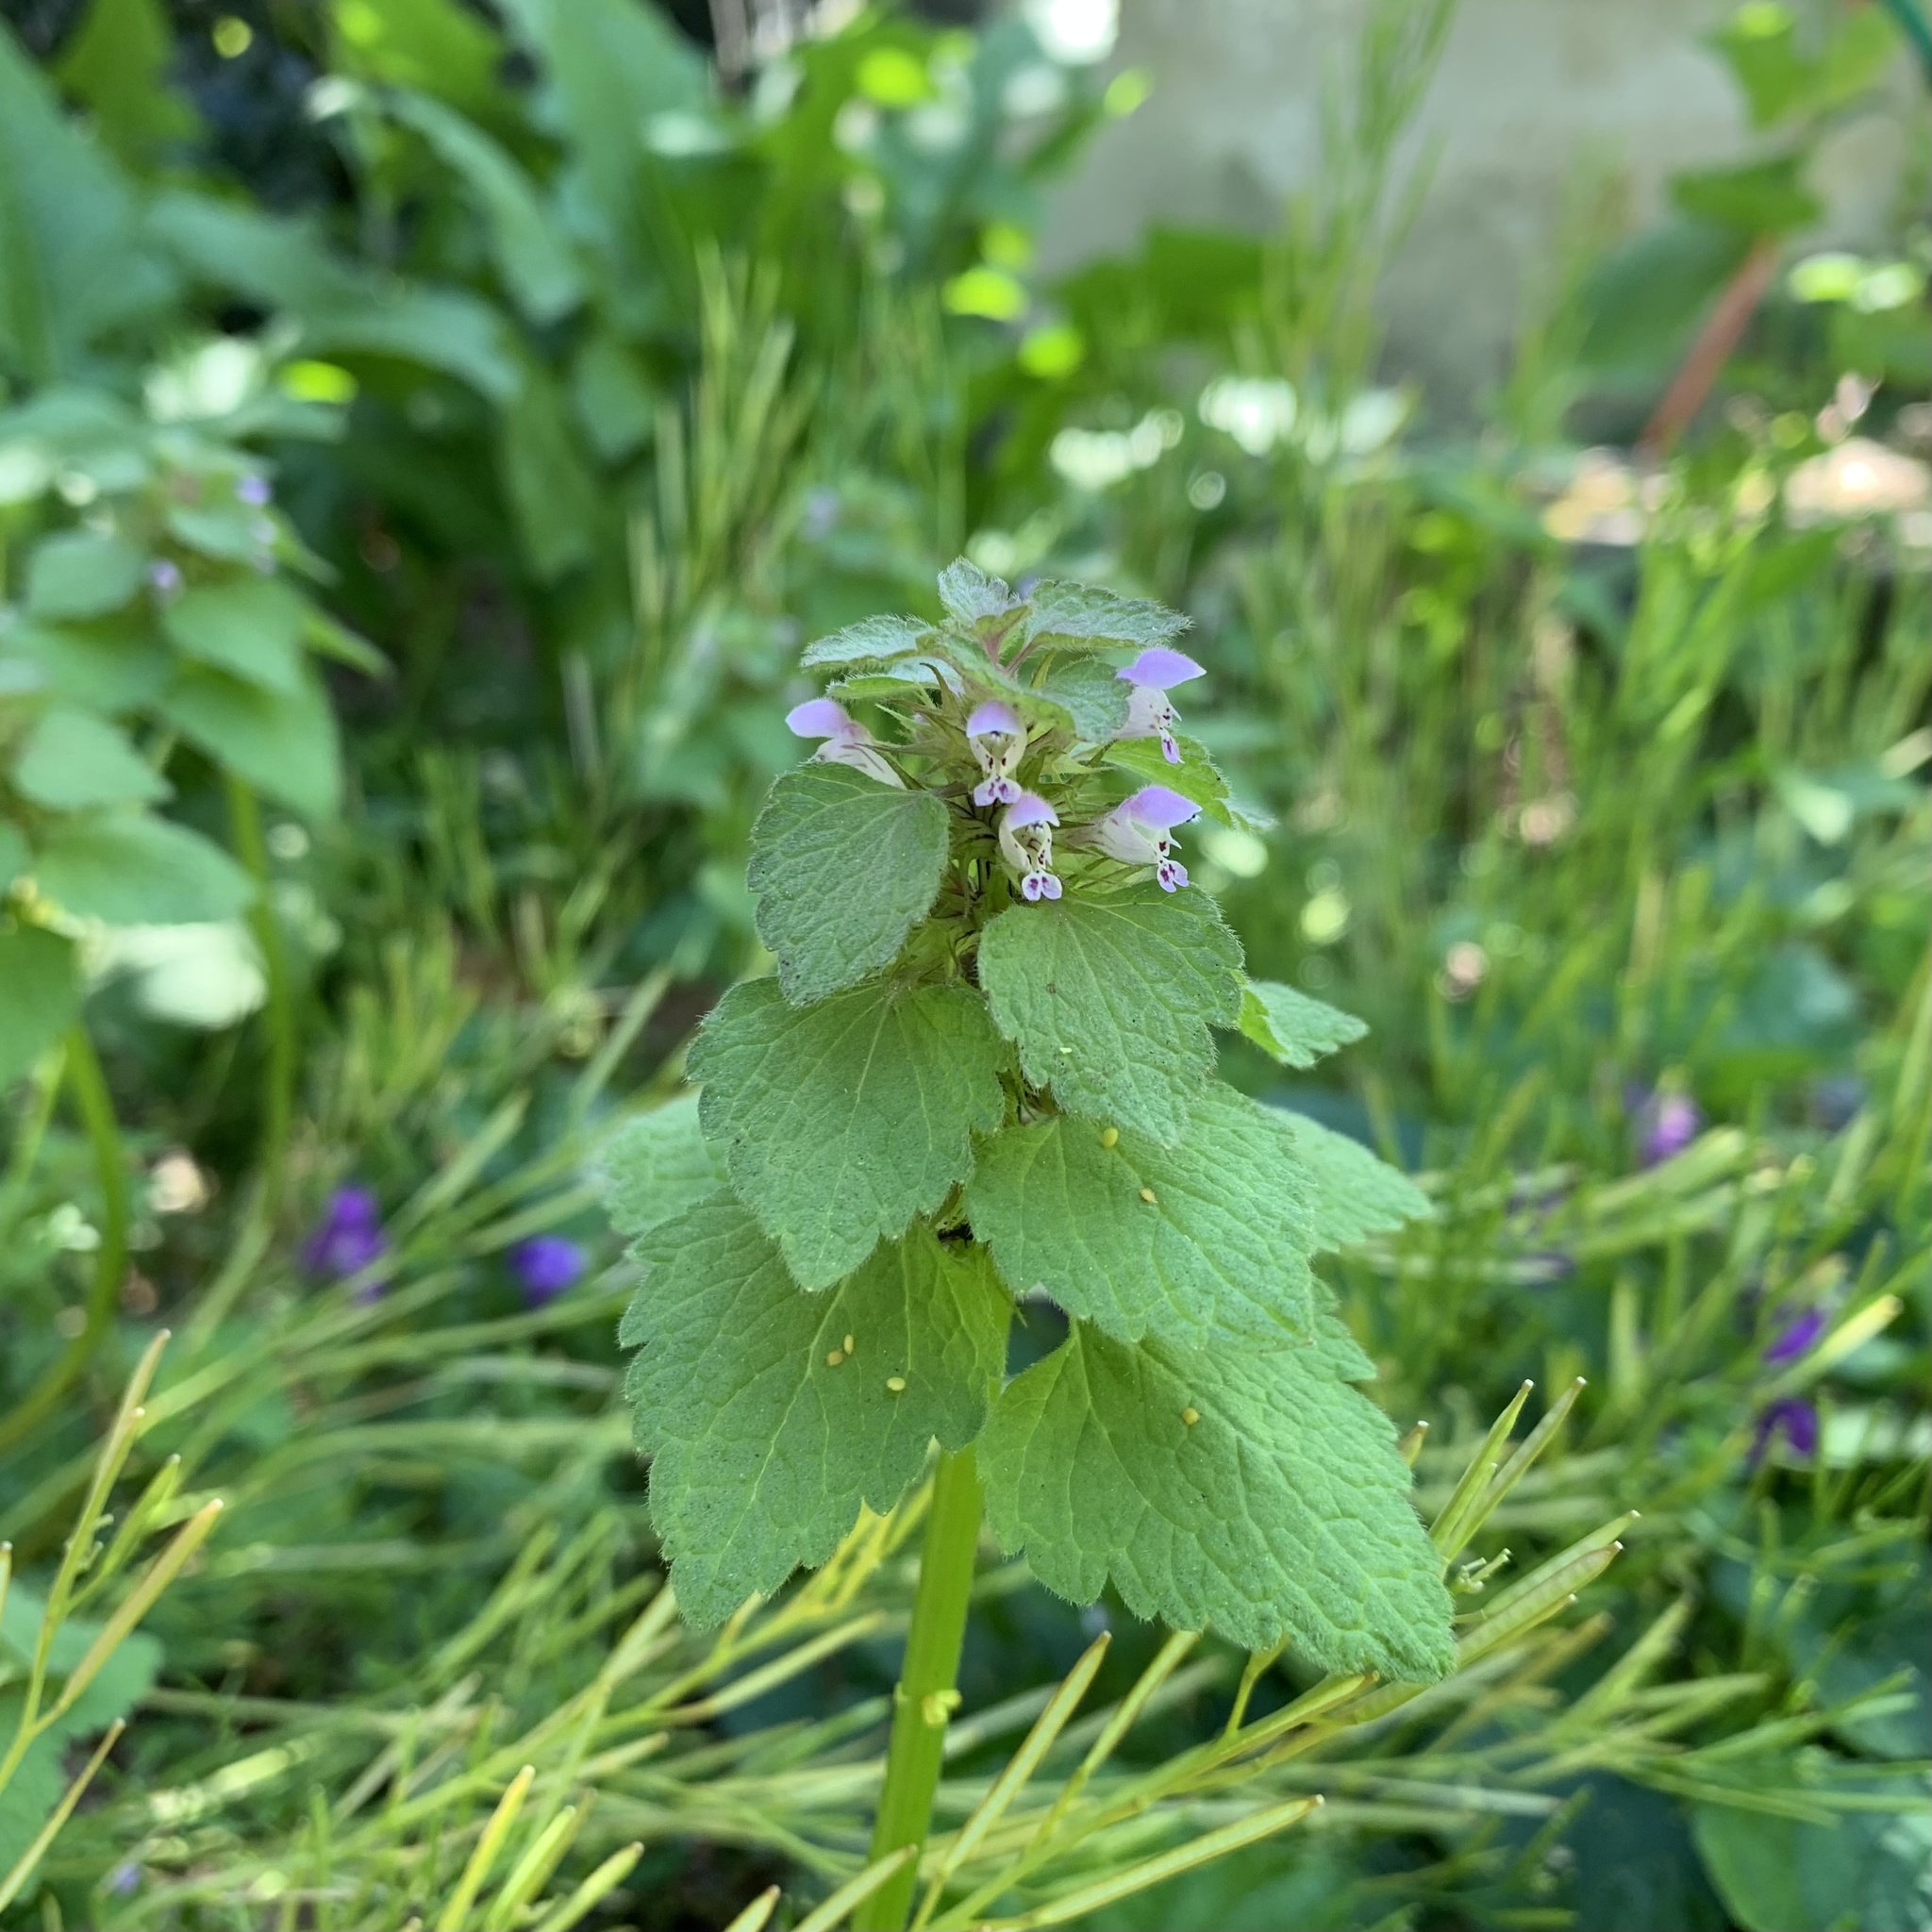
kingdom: Plantae
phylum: Tracheophyta
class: Magnoliopsida
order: Lamiales
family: Lamiaceae
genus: Lamium
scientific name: Lamium purpureum
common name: Red dead-nettle
